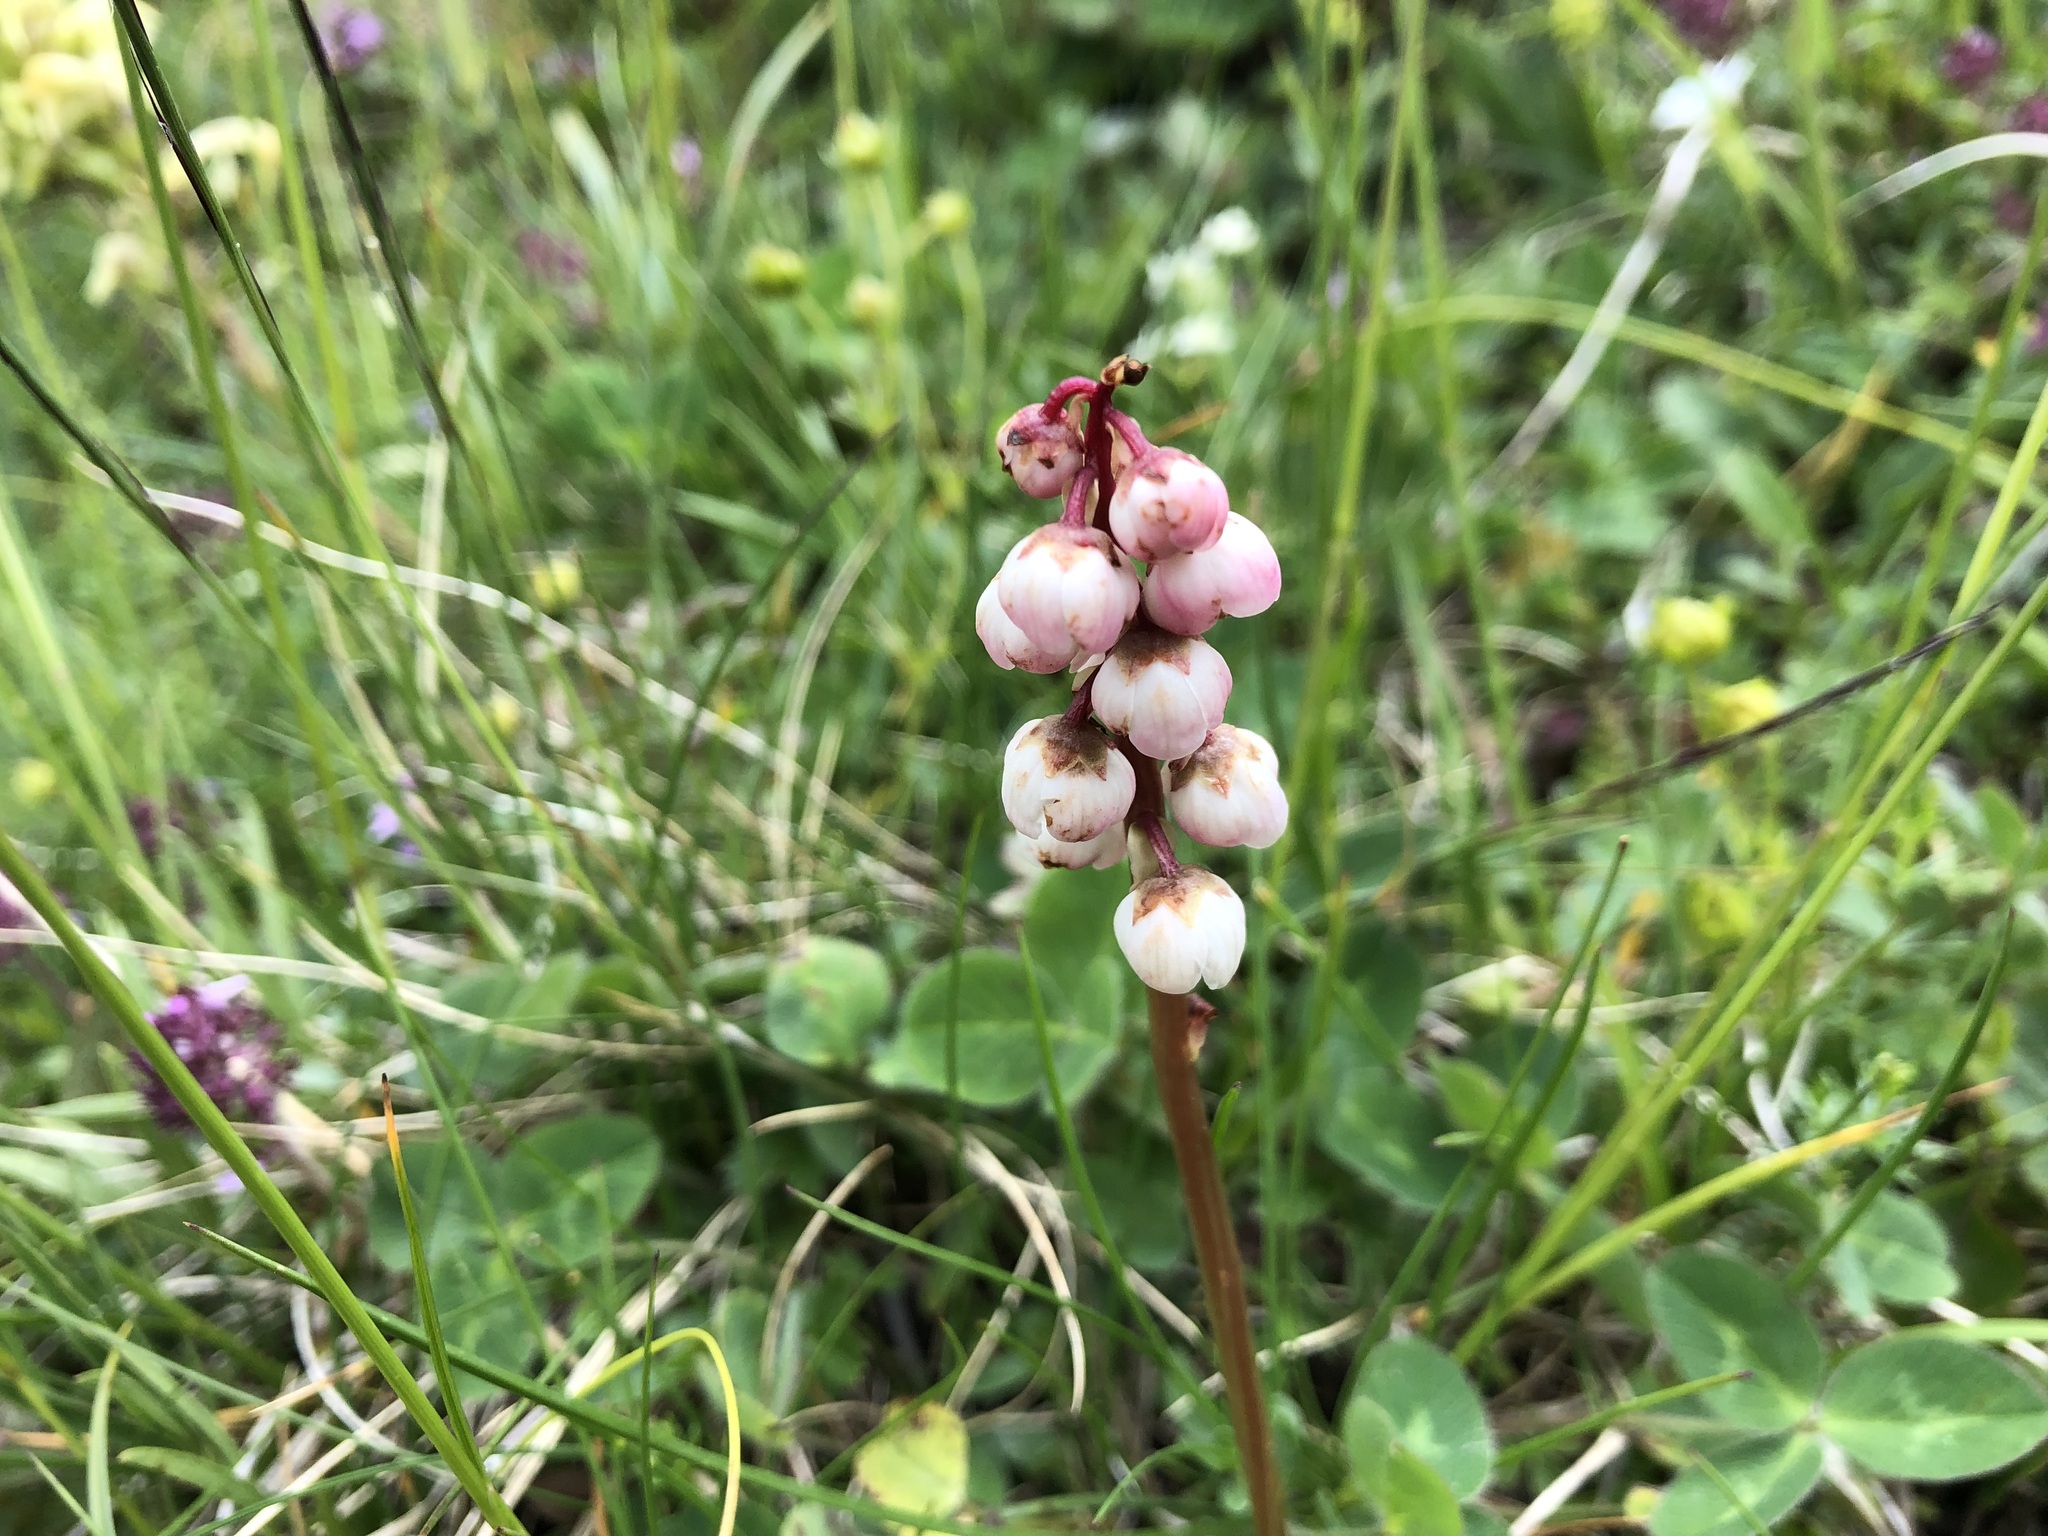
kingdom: Plantae
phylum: Tracheophyta
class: Magnoliopsida
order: Ericales
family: Ericaceae
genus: Pyrola
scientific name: Pyrola minor
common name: Common wintergreen
